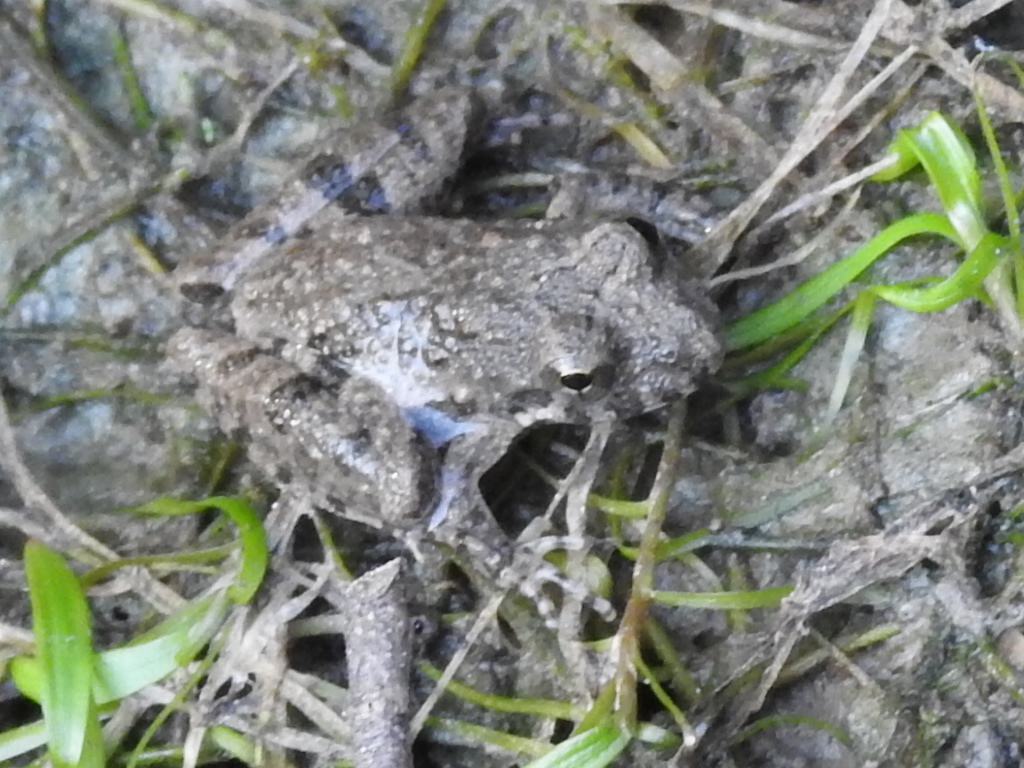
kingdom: Animalia
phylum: Chordata
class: Amphibia
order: Anura
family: Hylidae
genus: Acris
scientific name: Acris blanchardi
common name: Blanchard's cricket frog
